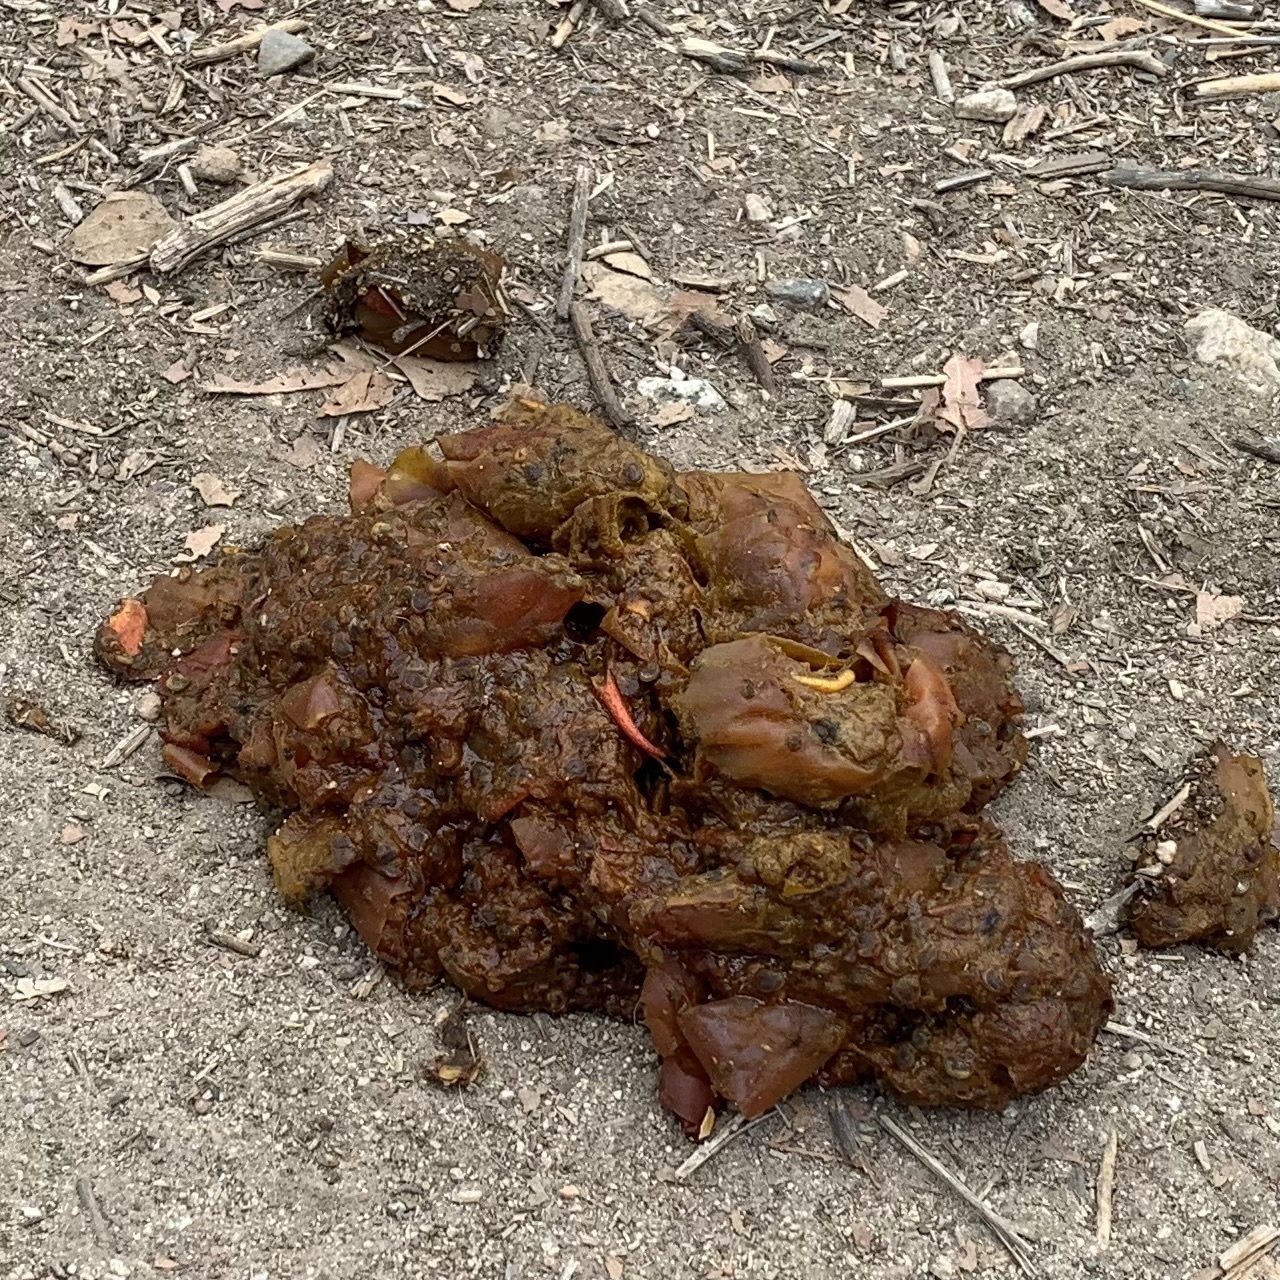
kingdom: Animalia
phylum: Chordata
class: Mammalia
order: Carnivora
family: Ursidae
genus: Ursus
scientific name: Ursus americanus
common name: American black bear
